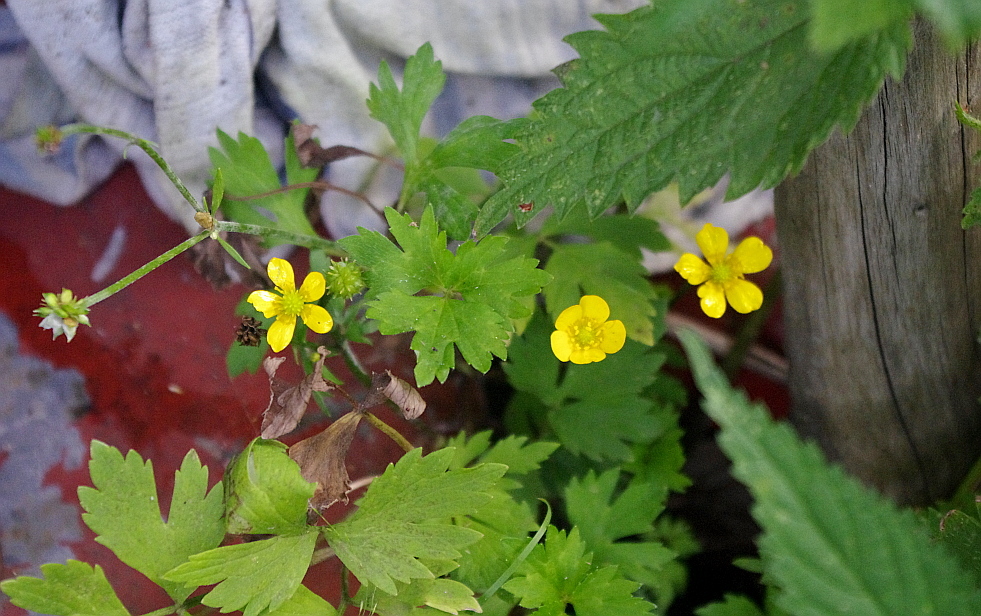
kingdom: Plantae
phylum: Tracheophyta
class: Magnoliopsida
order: Ranunculales
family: Ranunculaceae
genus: Ranunculus
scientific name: Ranunculus repens
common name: Creeping buttercup
